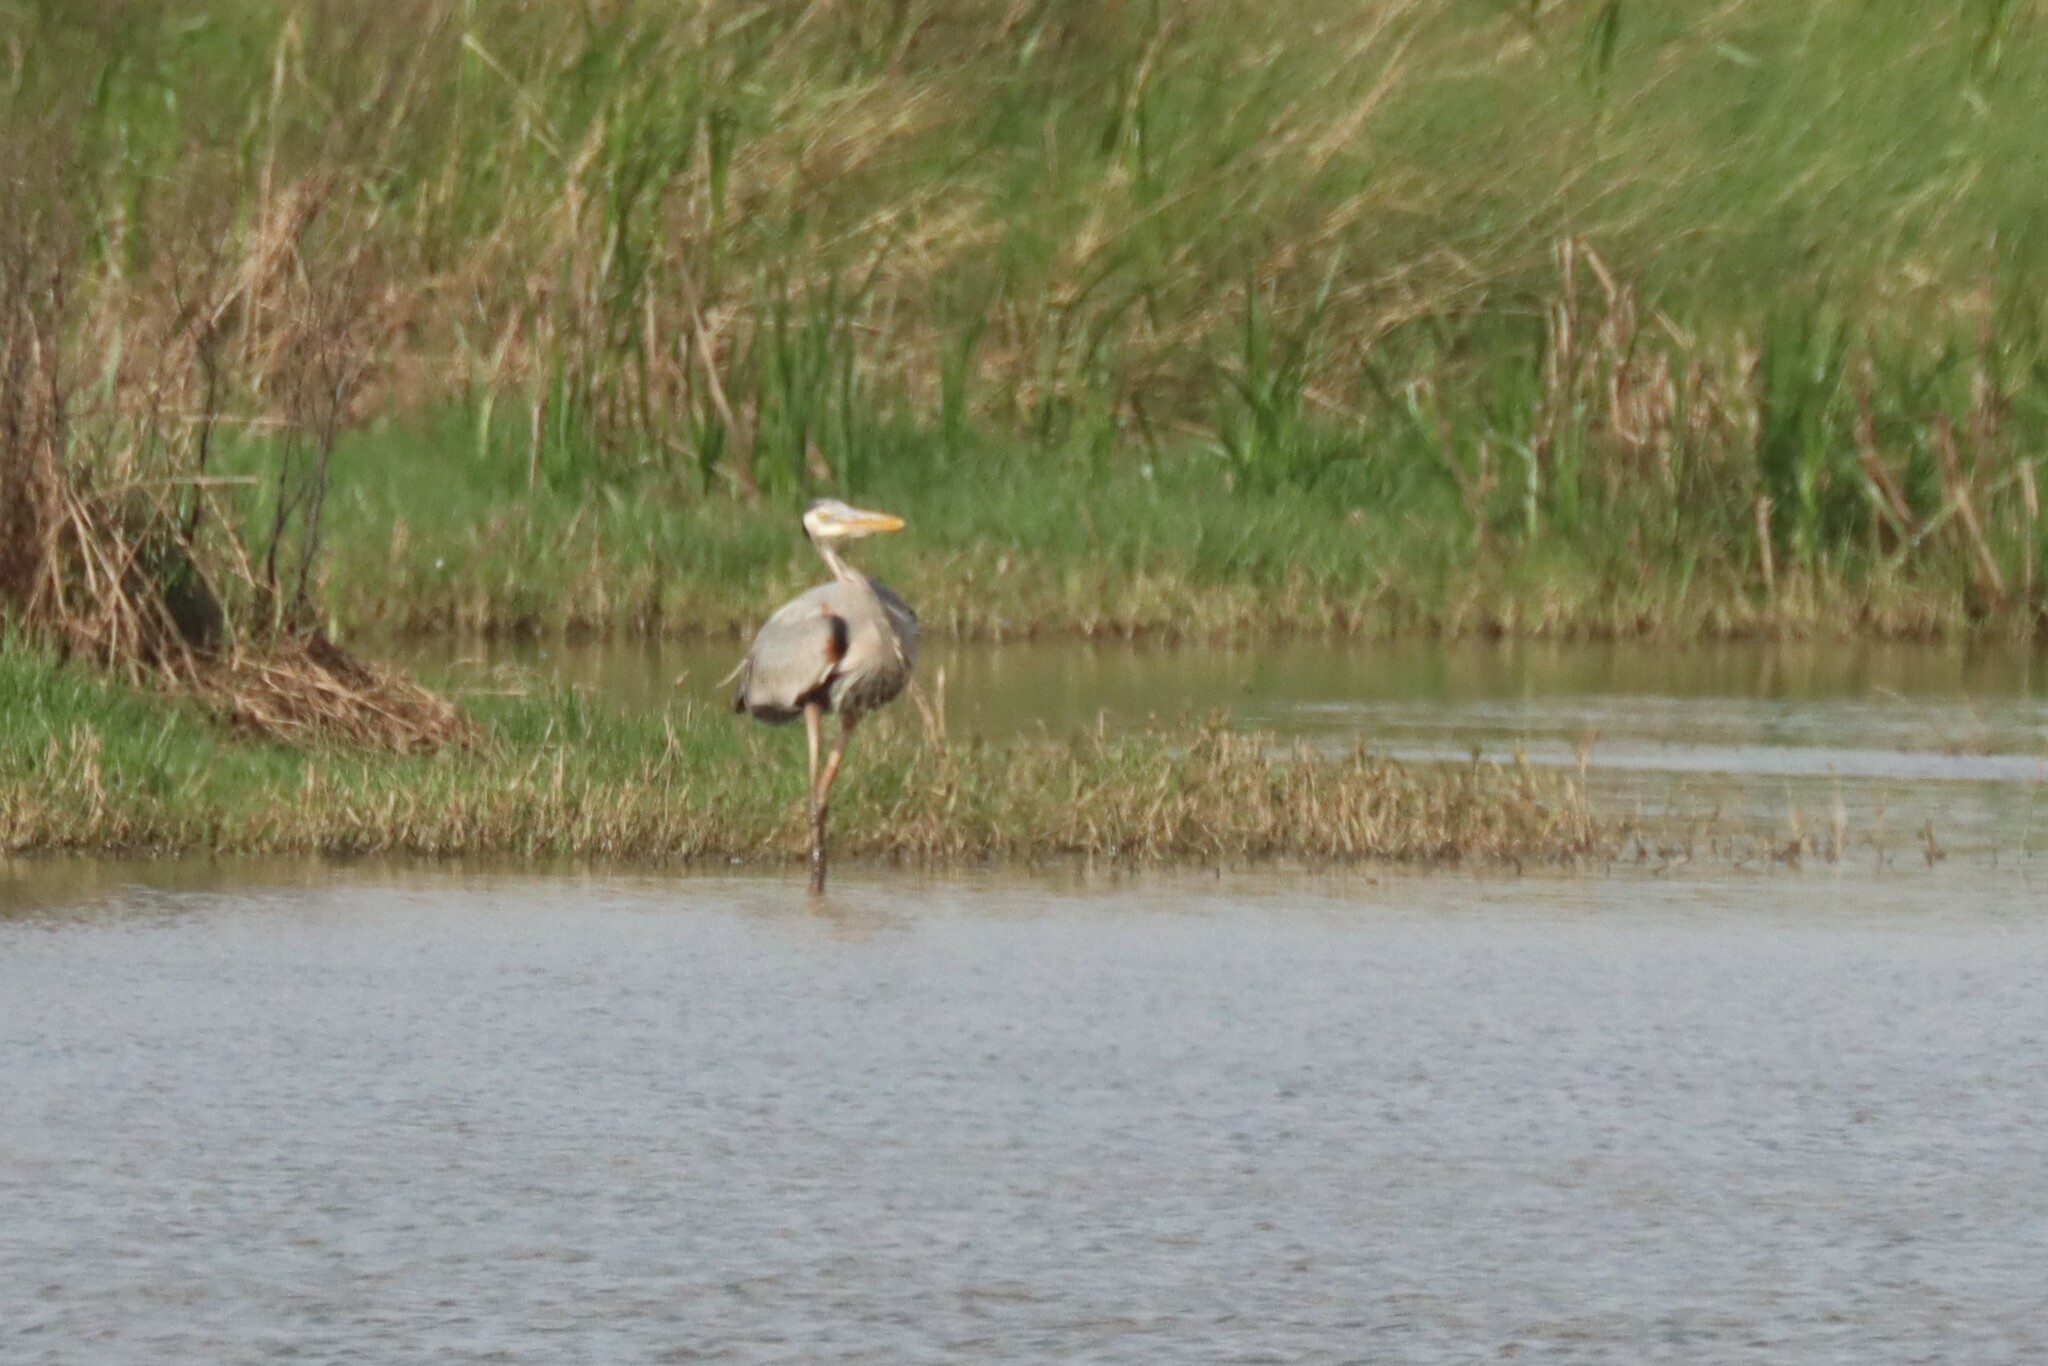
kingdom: Animalia
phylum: Chordata
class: Aves
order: Pelecaniformes
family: Ardeidae
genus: Ardea
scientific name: Ardea herodias
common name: Great blue heron
